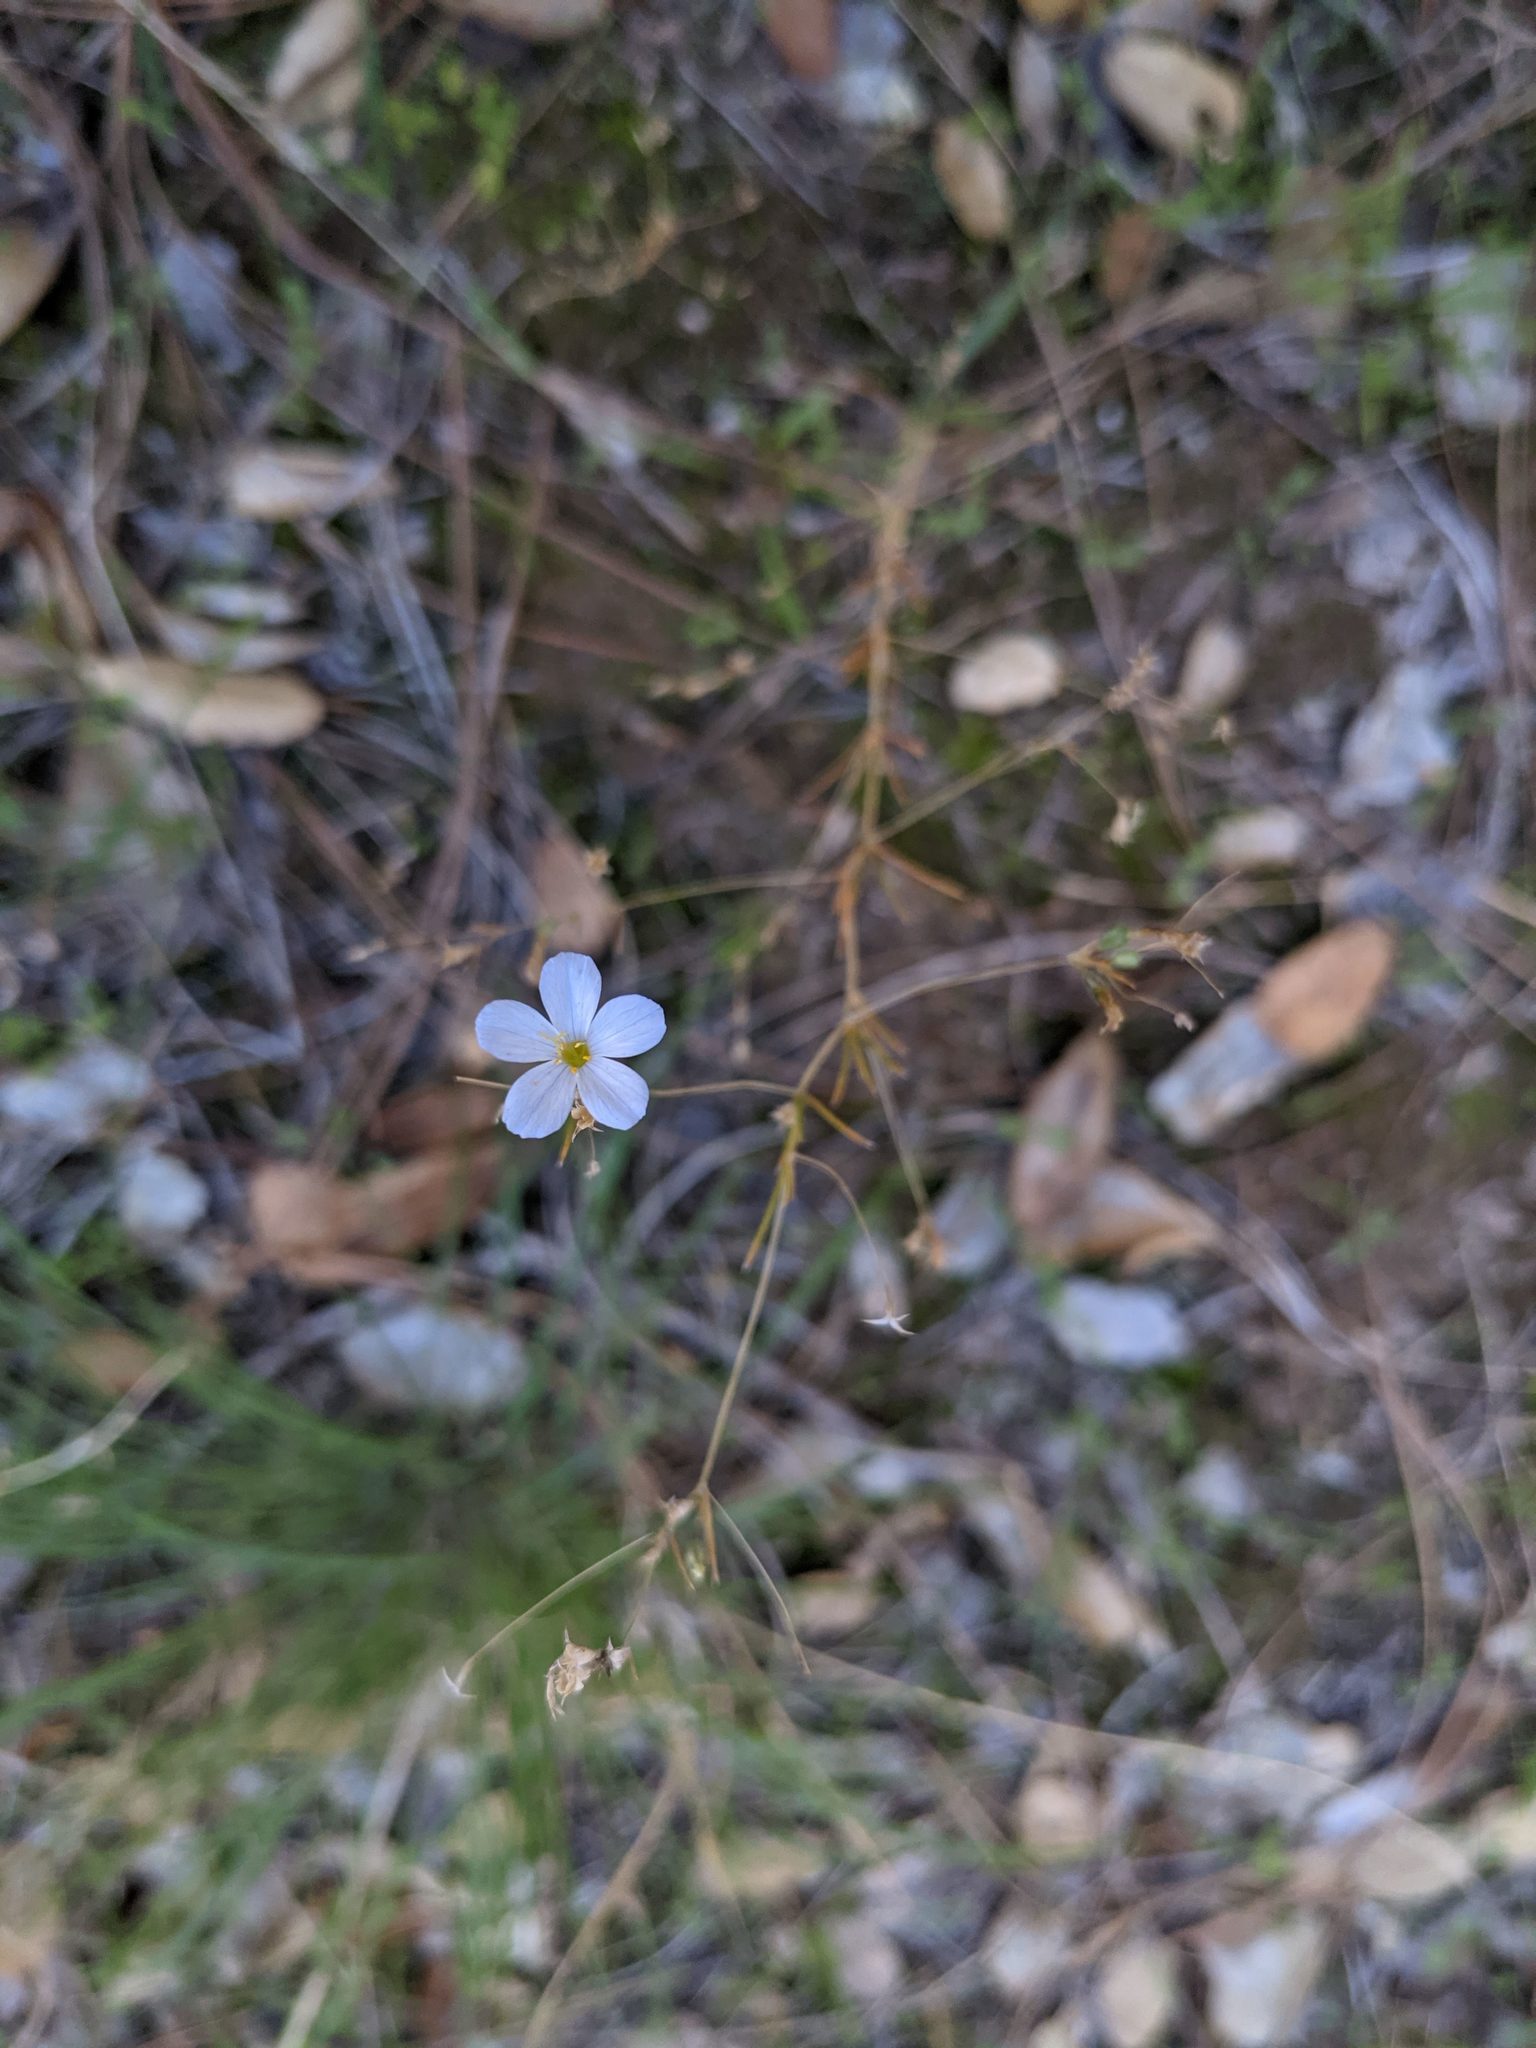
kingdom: Plantae
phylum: Tracheophyta
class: Magnoliopsida
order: Ericales
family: Polemoniaceae
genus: Leptosiphon
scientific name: Leptosiphon liniflorus
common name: Narrowflower flaxflower
